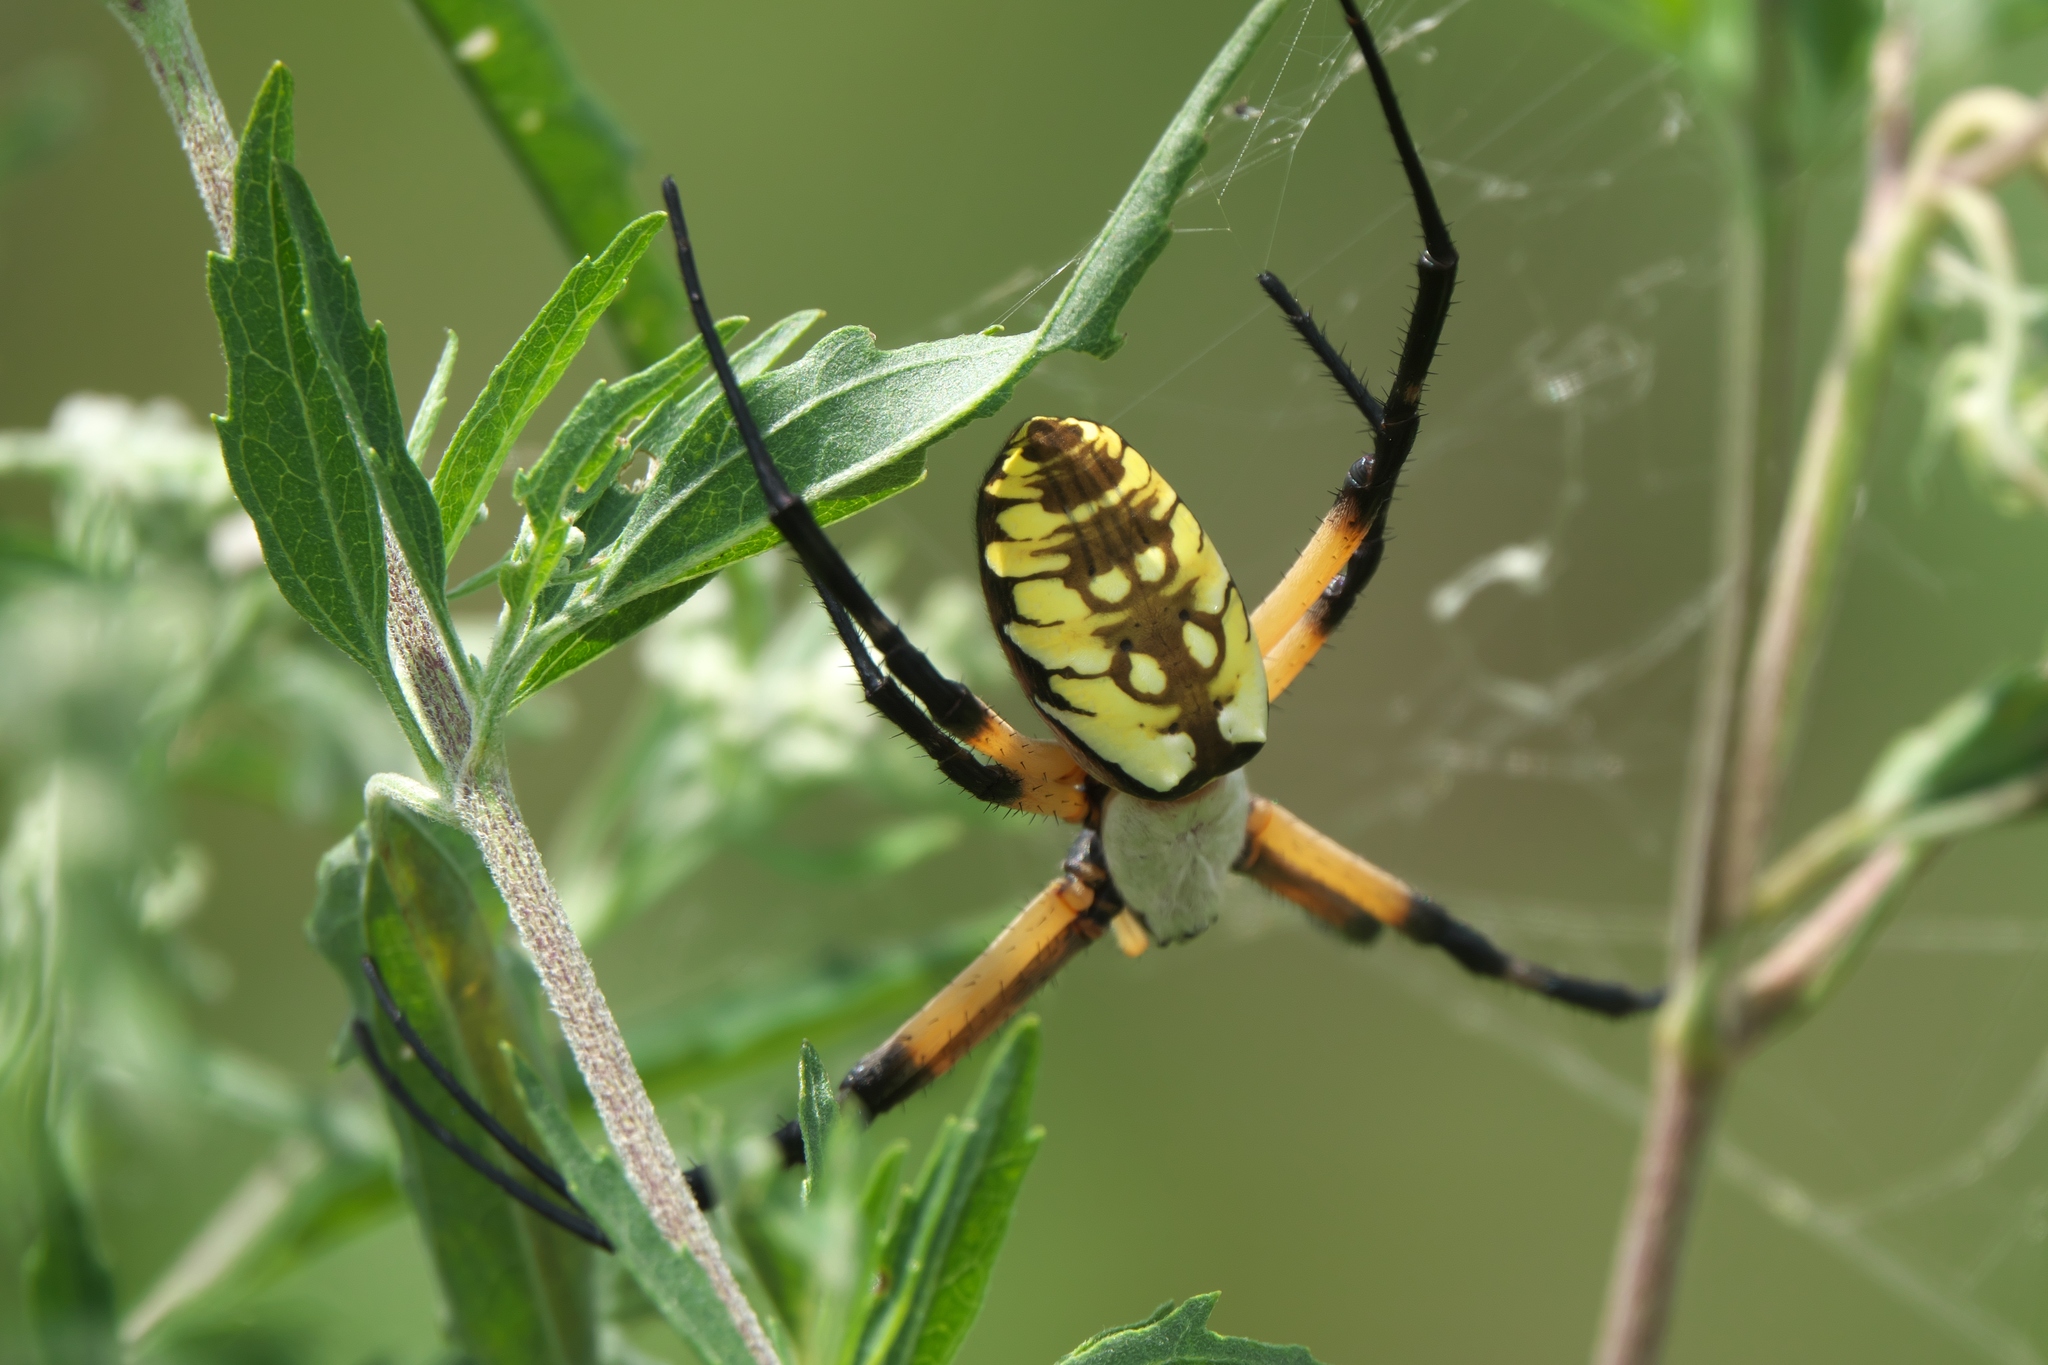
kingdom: Animalia
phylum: Arthropoda
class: Arachnida
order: Araneae
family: Araneidae
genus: Argiope
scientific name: Argiope aurantia
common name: Orb weavers
